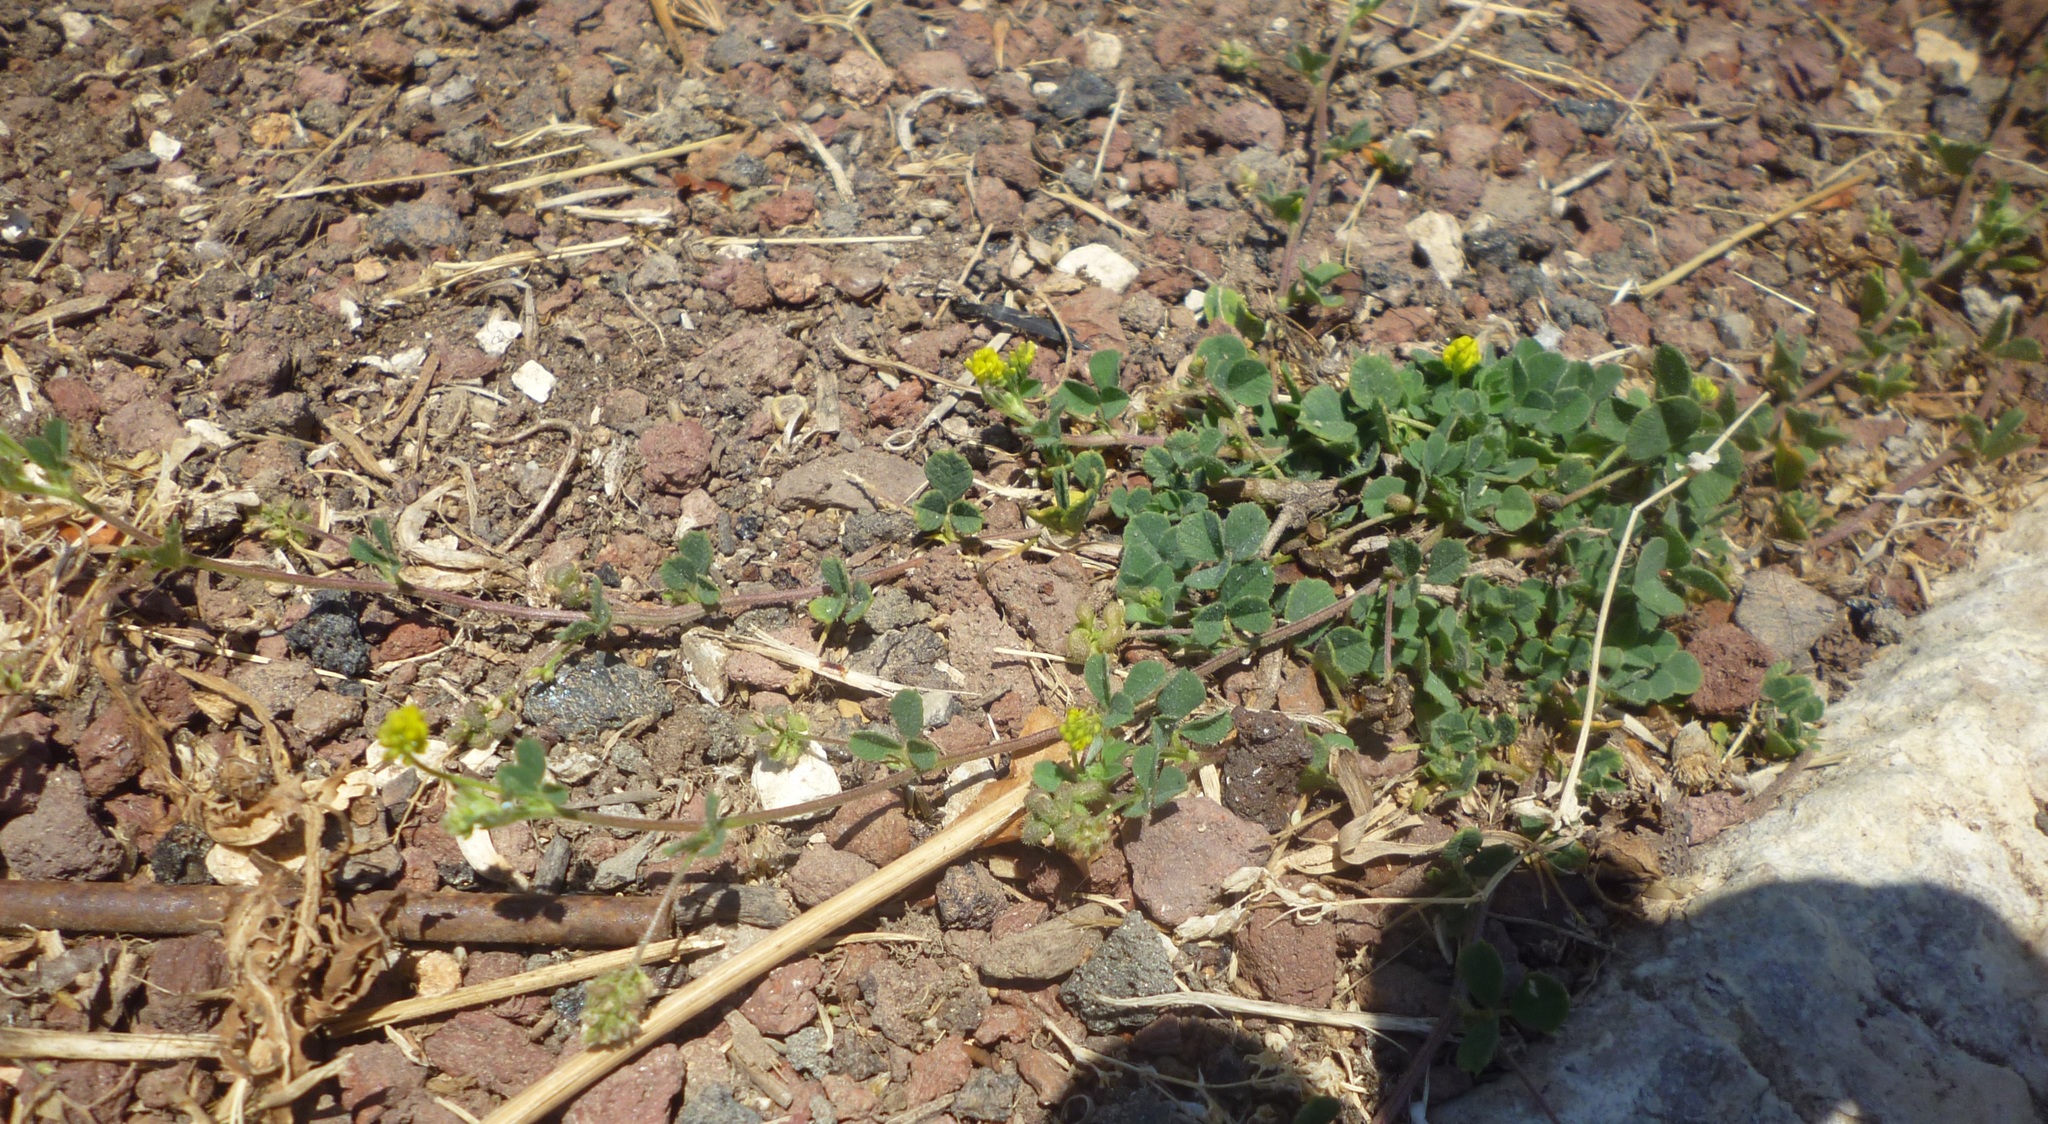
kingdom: Plantae
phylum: Tracheophyta
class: Magnoliopsida
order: Fabales
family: Fabaceae
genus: Medicago
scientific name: Medicago lupulina
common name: Black medick
